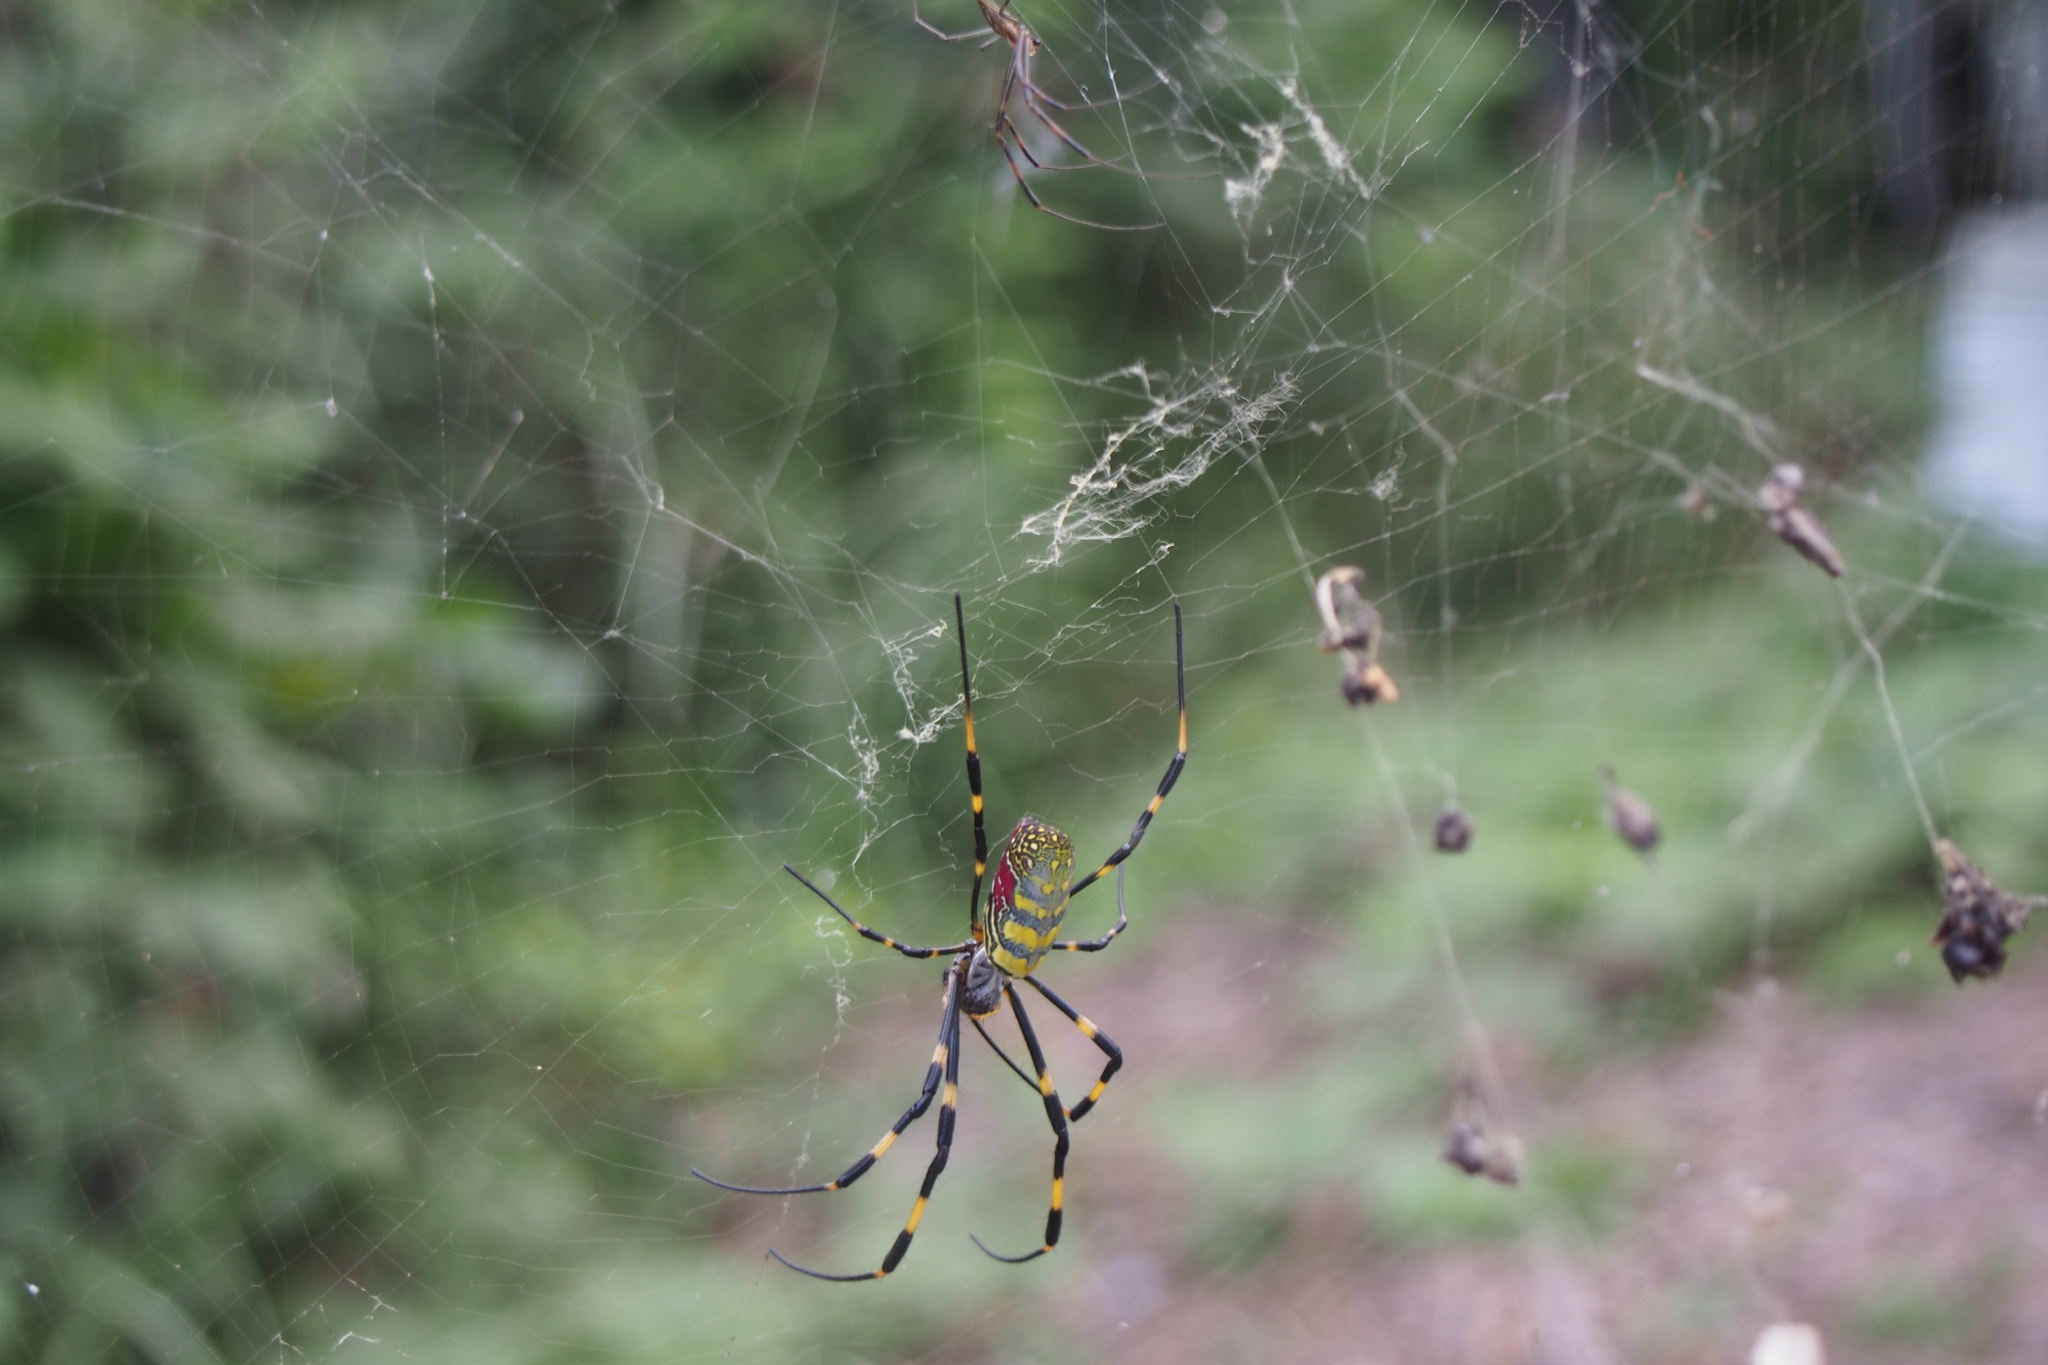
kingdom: Animalia
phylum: Arthropoda
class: Arachnida
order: Araneae
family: Araneidae
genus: Trichonephila
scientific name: Trichonephila clavata
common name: Jorō spider
